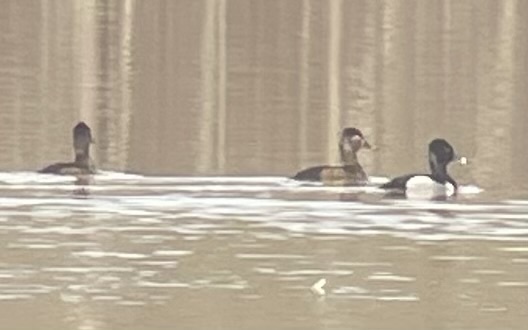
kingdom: Animalia
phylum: Chordata
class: Aves
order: Anseriformes
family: Anatidae
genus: Aythya
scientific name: Aythya collaris
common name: Ring-necked duck
